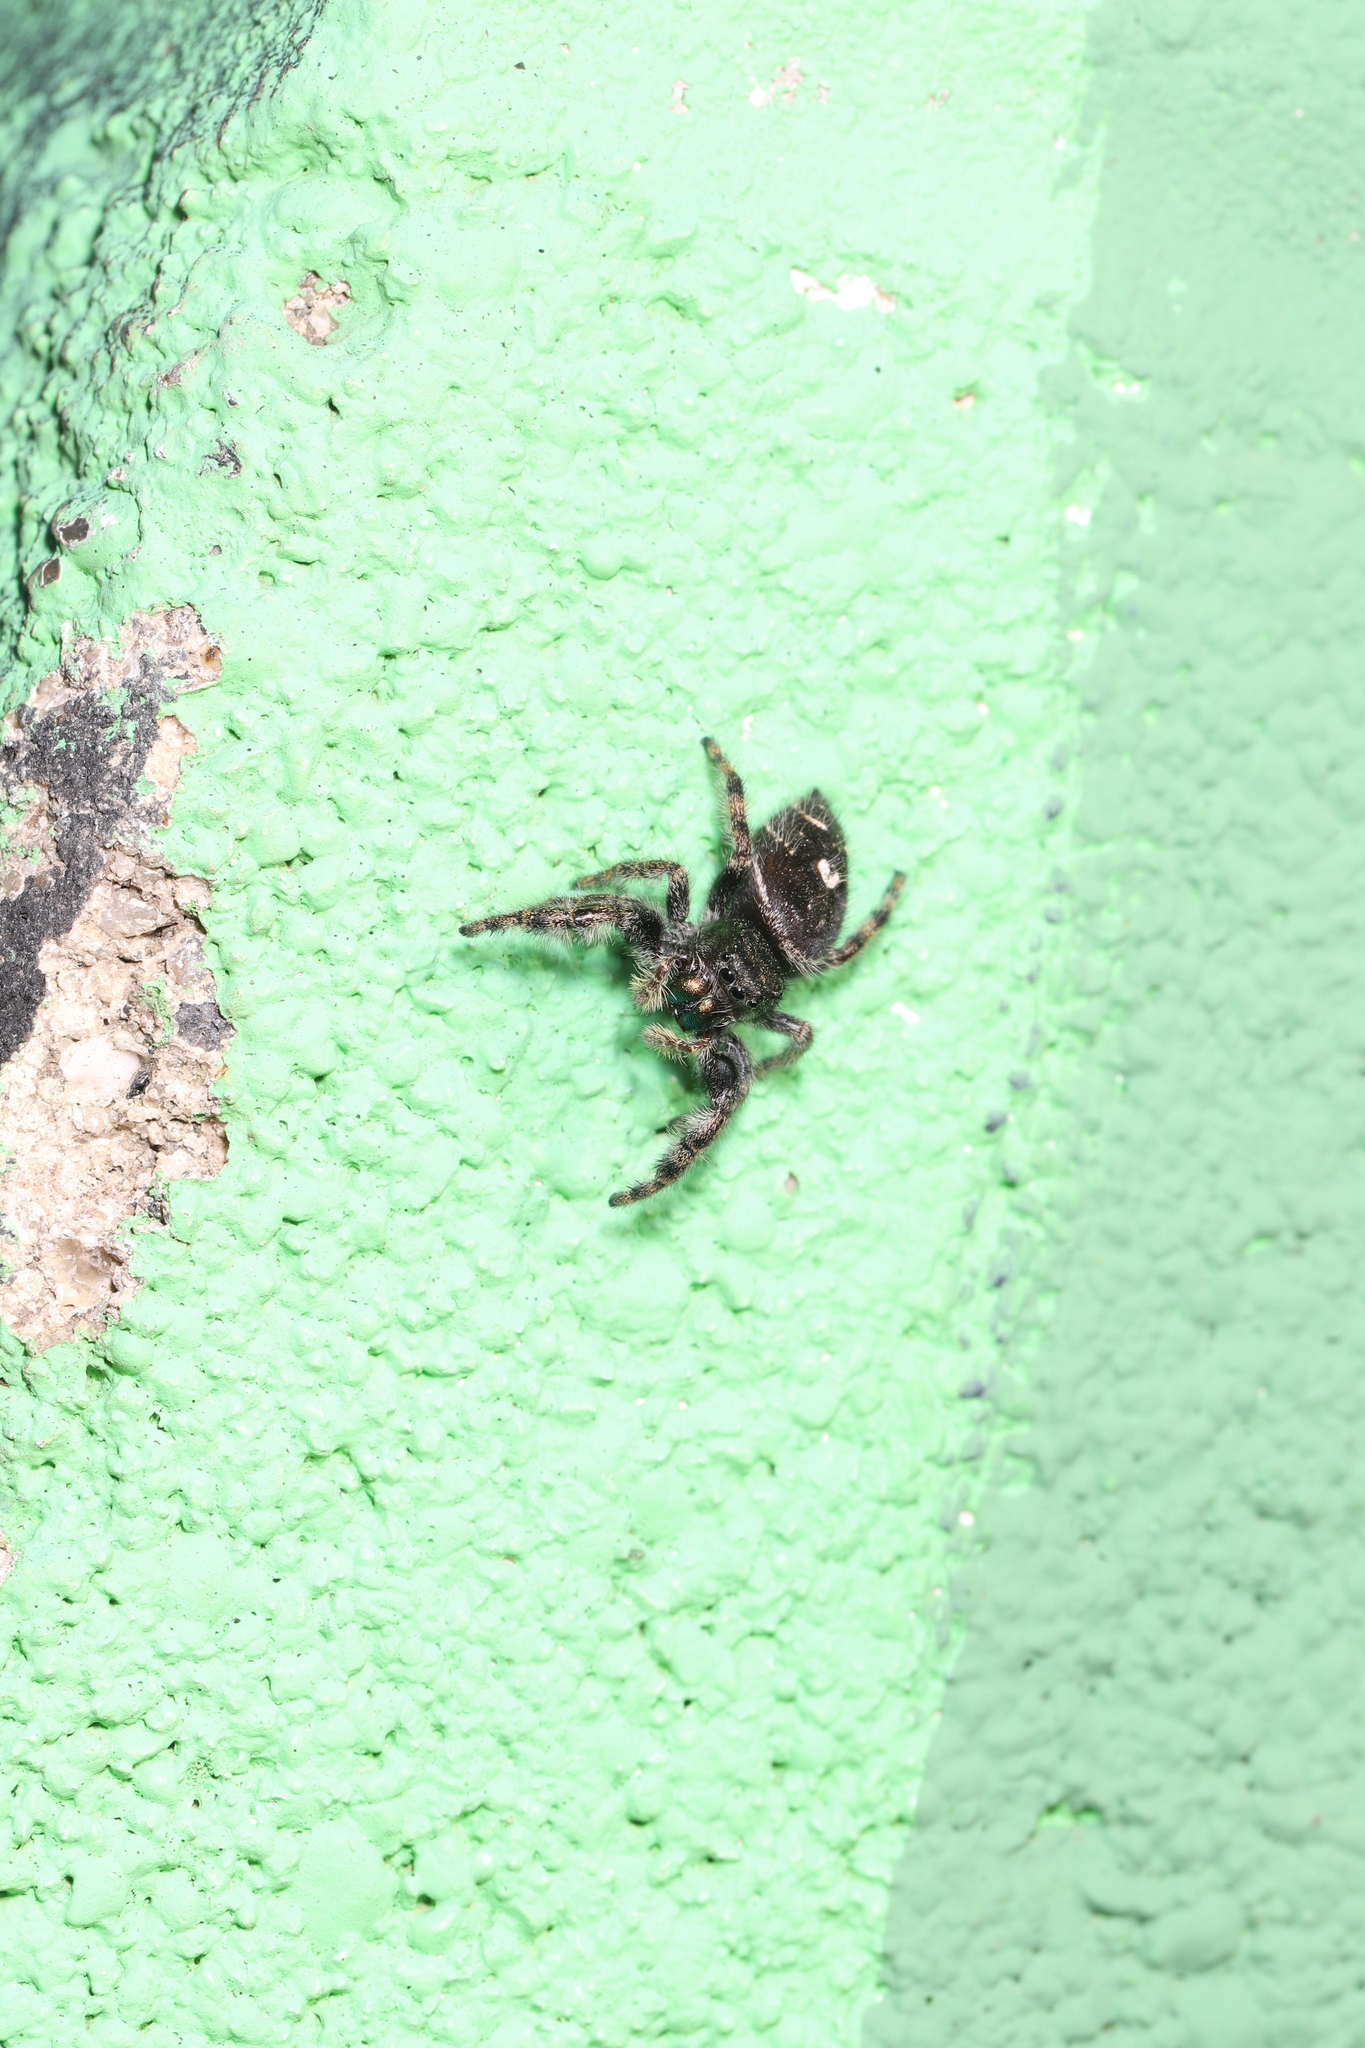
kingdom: Animalia
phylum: Arthropoda
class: Arachnida
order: Araneae
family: Salticidae
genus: Phidippus
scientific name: Phidippus audax
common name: Bold jumper
